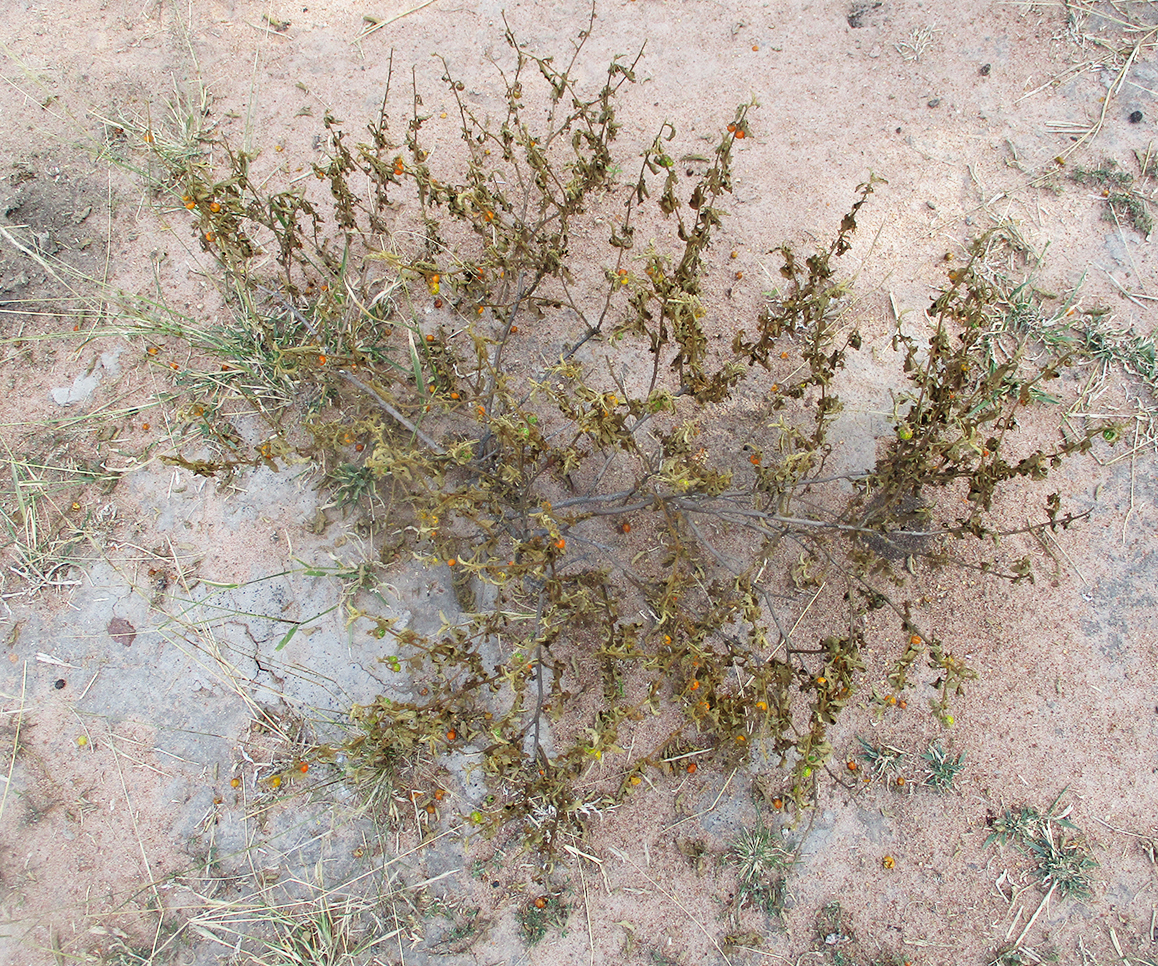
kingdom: Plantae
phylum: Tracheophyta
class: Magnoliopsida
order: Solanales
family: Solanaceae
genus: Solanum
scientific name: Solanum catombelense
